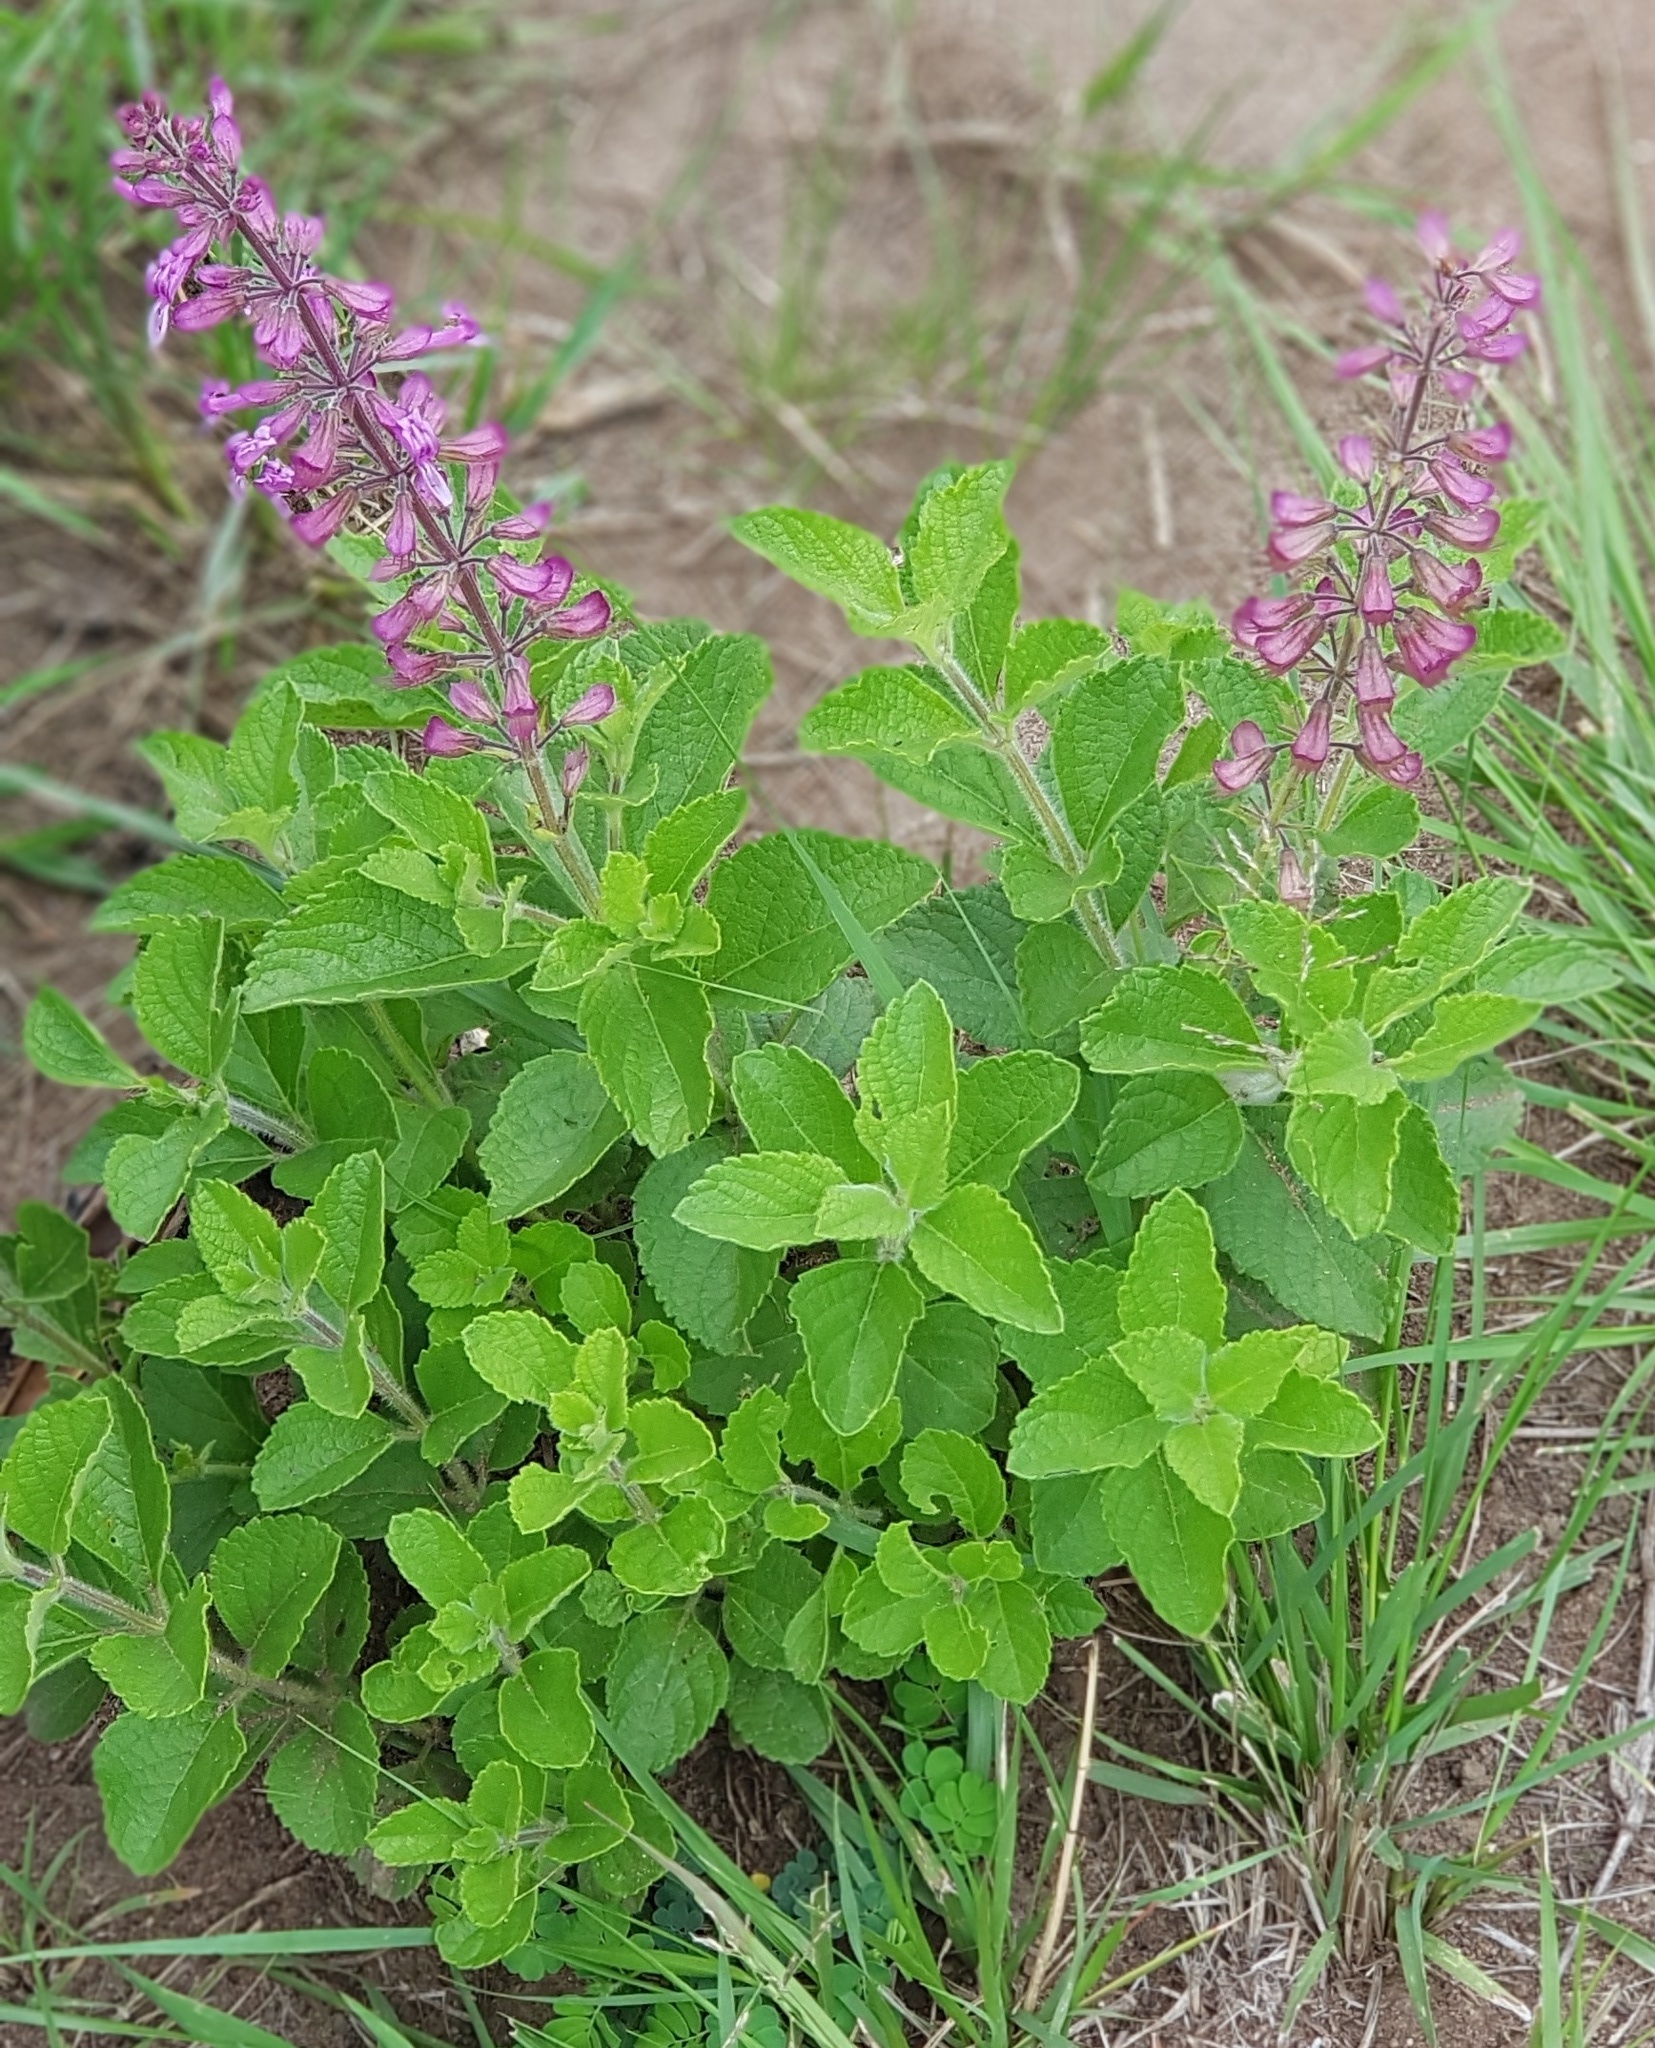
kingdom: Plantae
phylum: Tracheophyta
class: Magnoliopsida
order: Lamiales
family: Lamiaceae
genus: Ocimum
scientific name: Ocimum serratum
